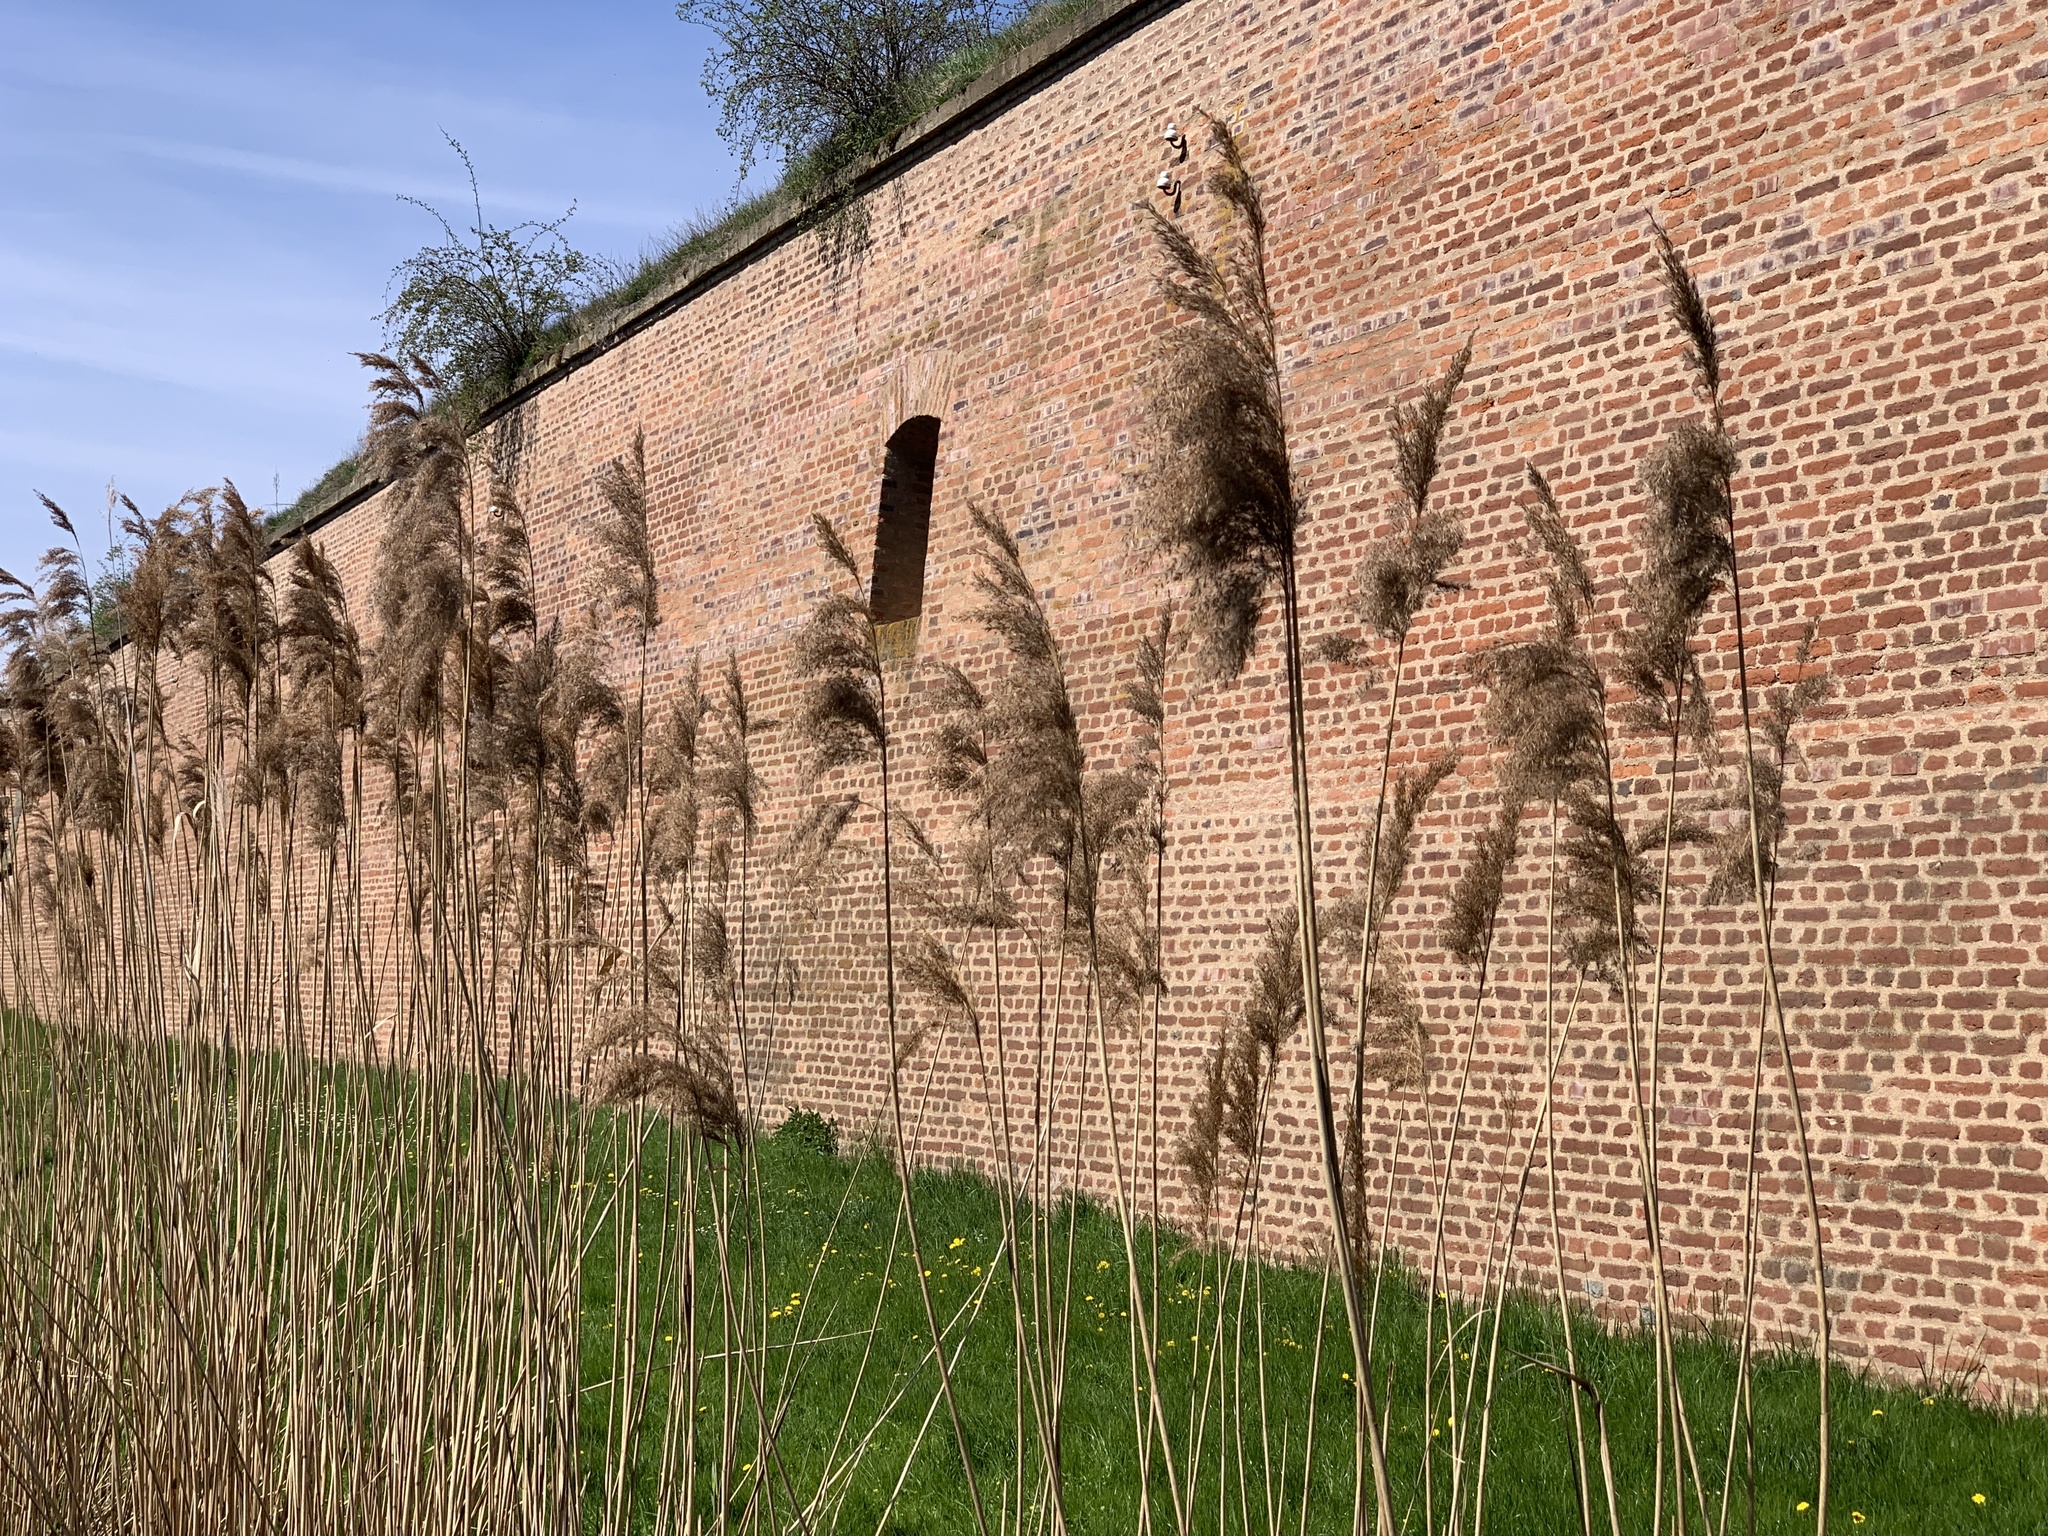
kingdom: Plantae
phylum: Tracheophyta
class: Liliopsida
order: Poales
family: Poaceae
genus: Phragmites
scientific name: Phragmites australis
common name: Common reed
